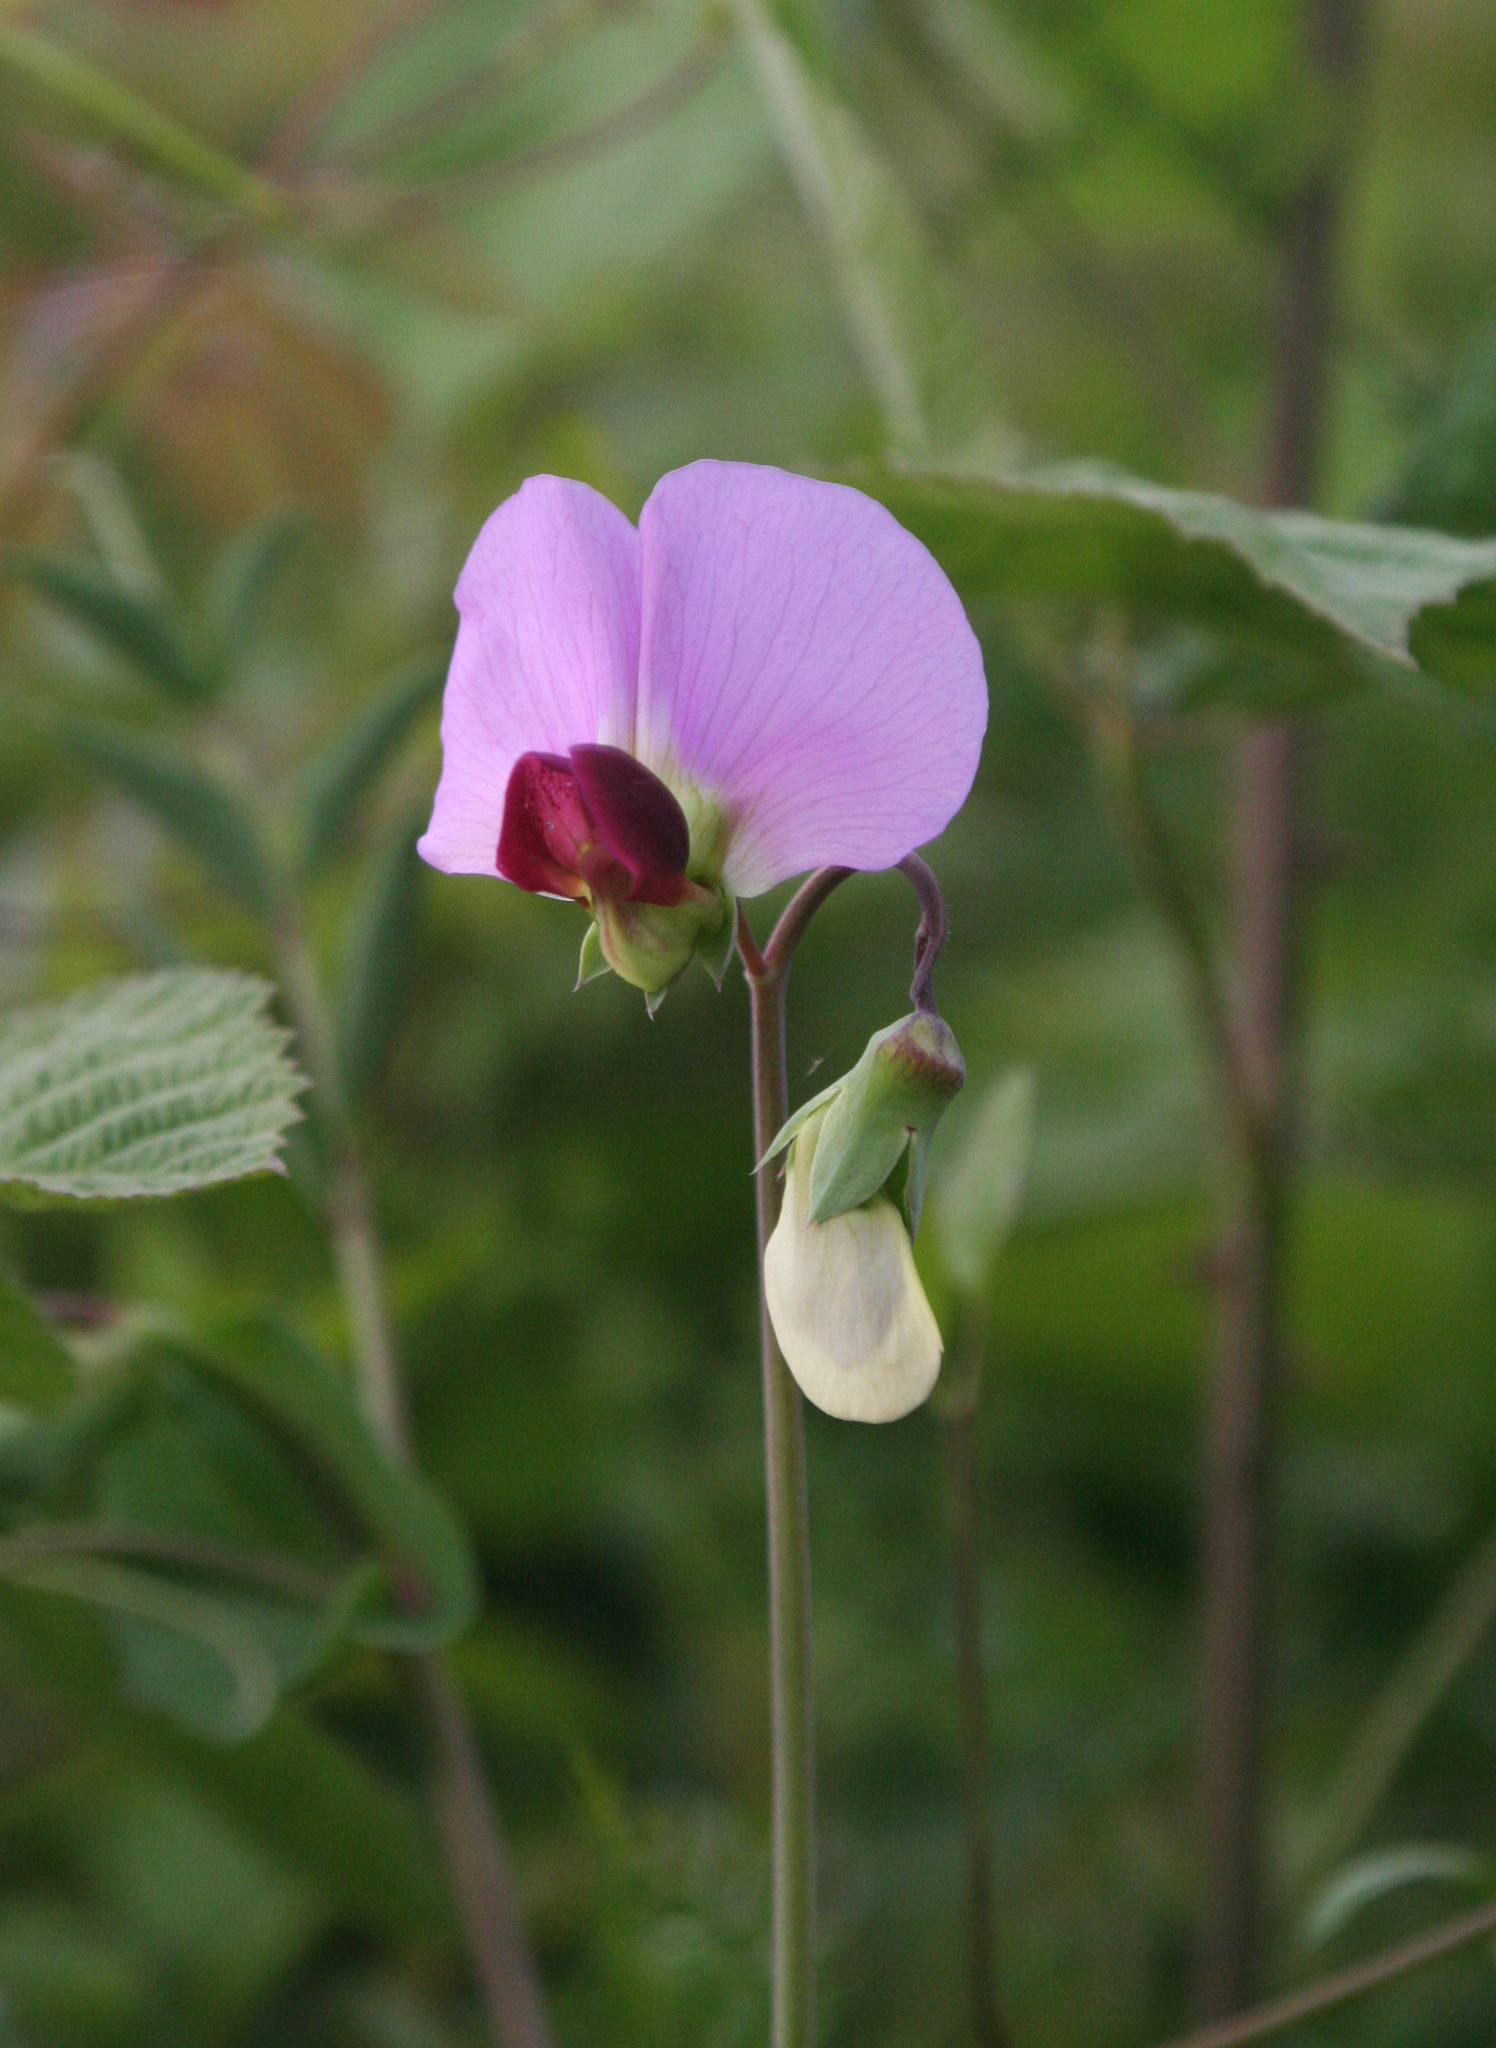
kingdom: Plantae
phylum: Tracheophyta
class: Magnoliopsida
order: Fabales
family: Fabaceae
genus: Lathyrus
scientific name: Lathyrus oleraceus
